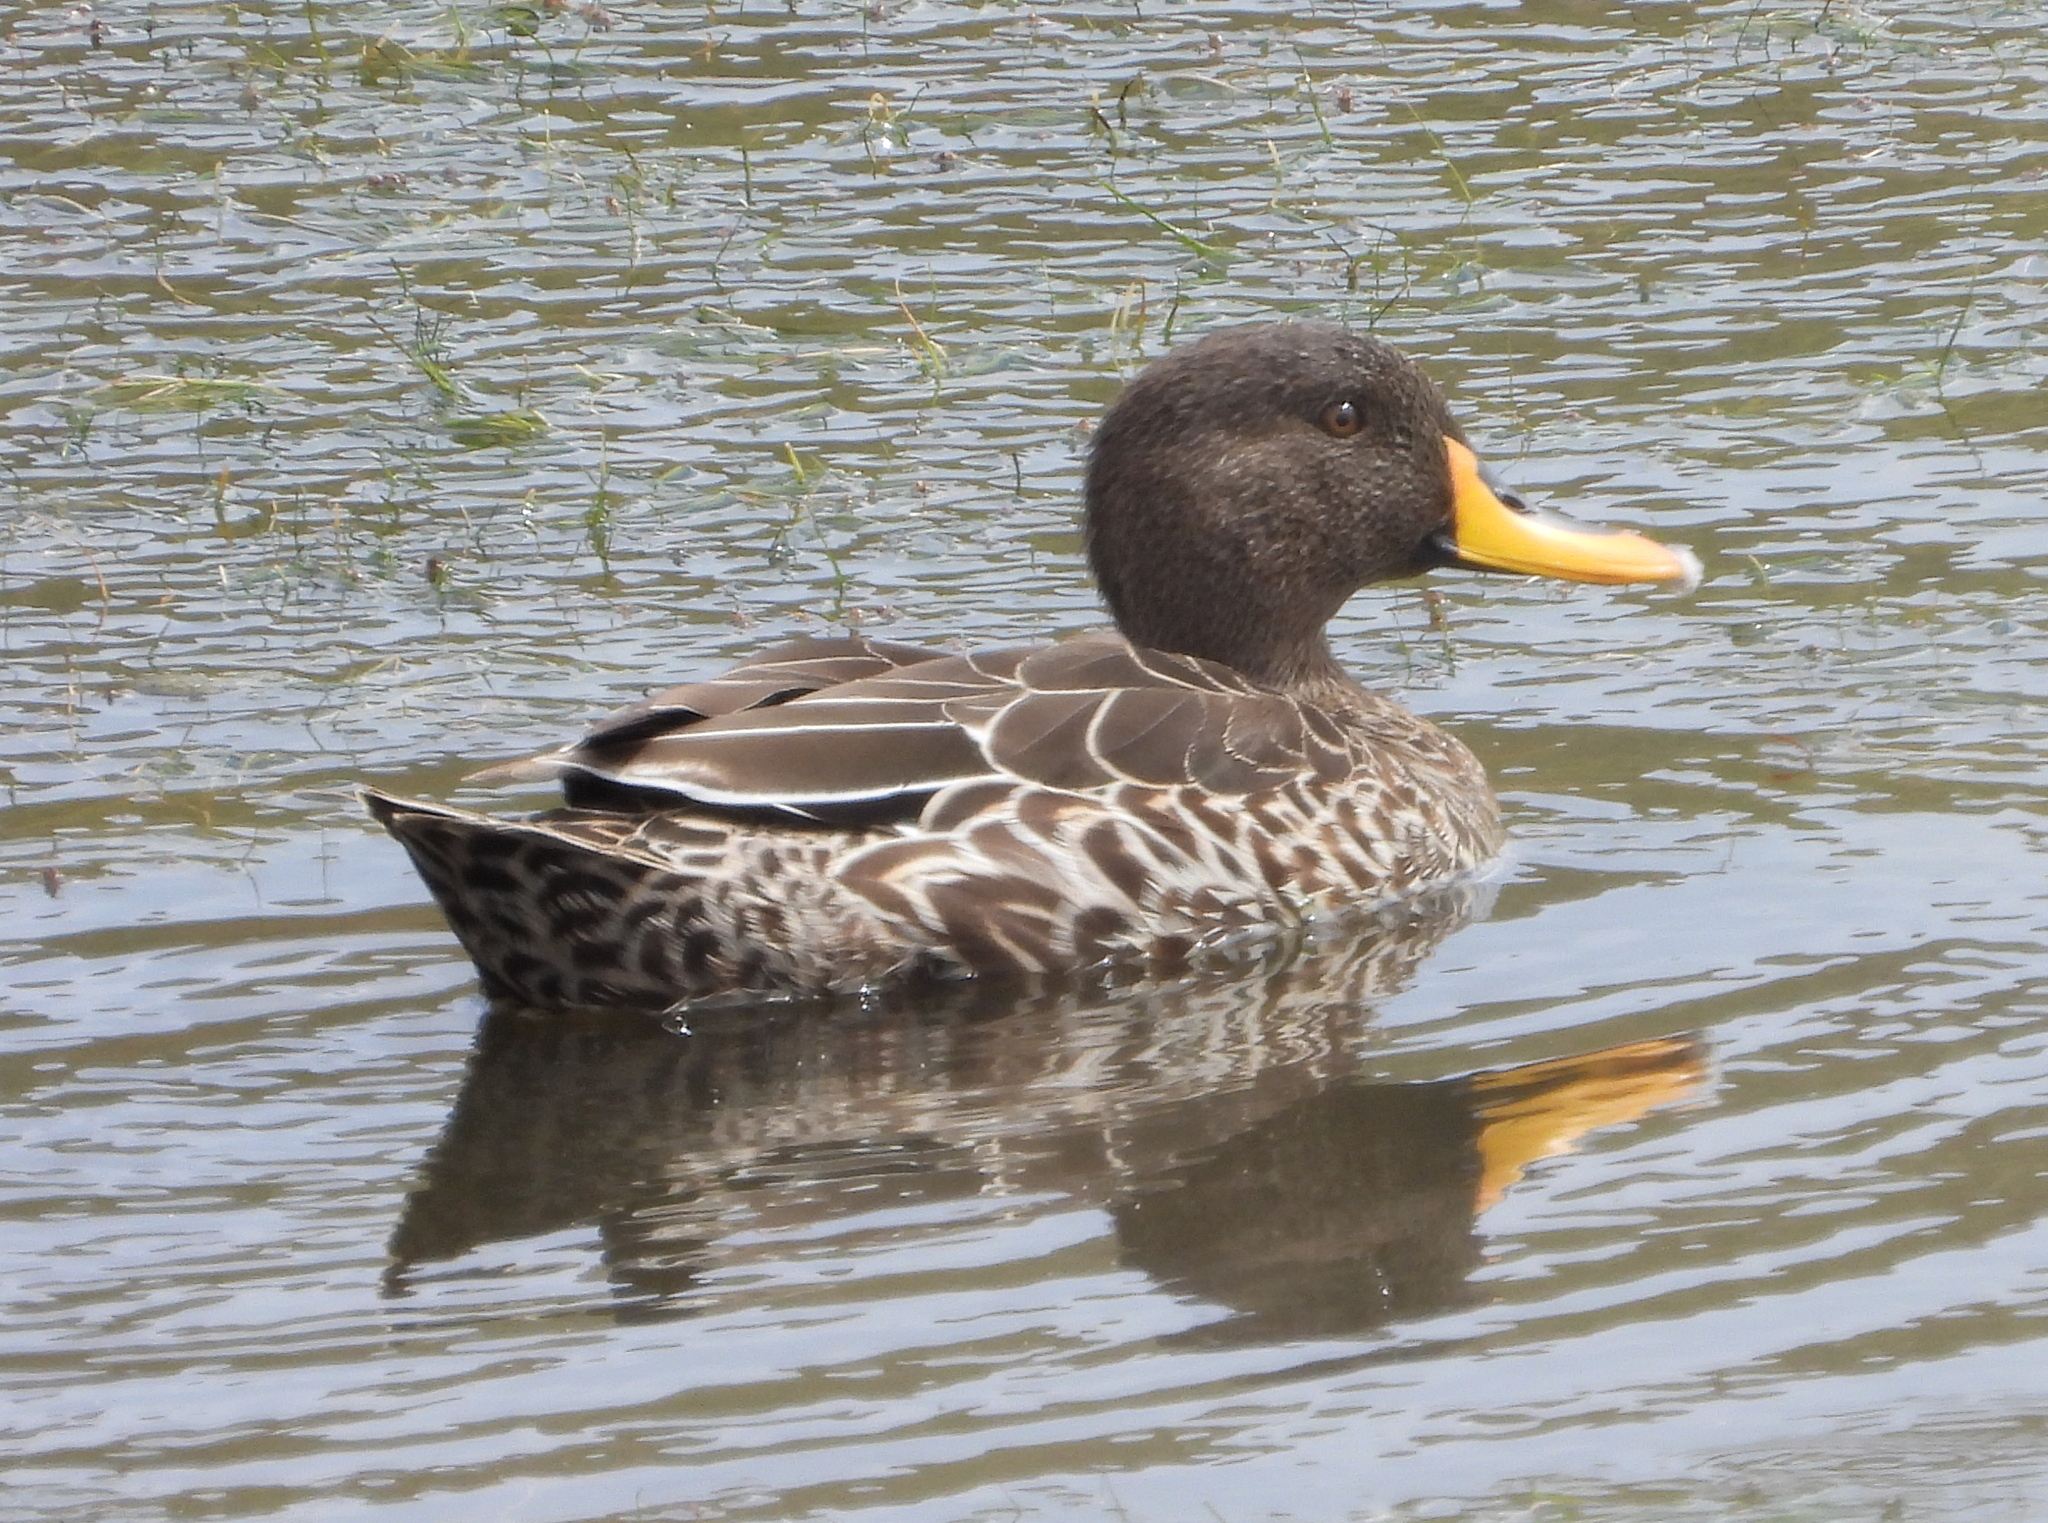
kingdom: Animalia
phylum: Chordata
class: Aves
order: Anseriformes
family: Anatidae
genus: Anas
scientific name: Anas undulata
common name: Yellow-billed duck
